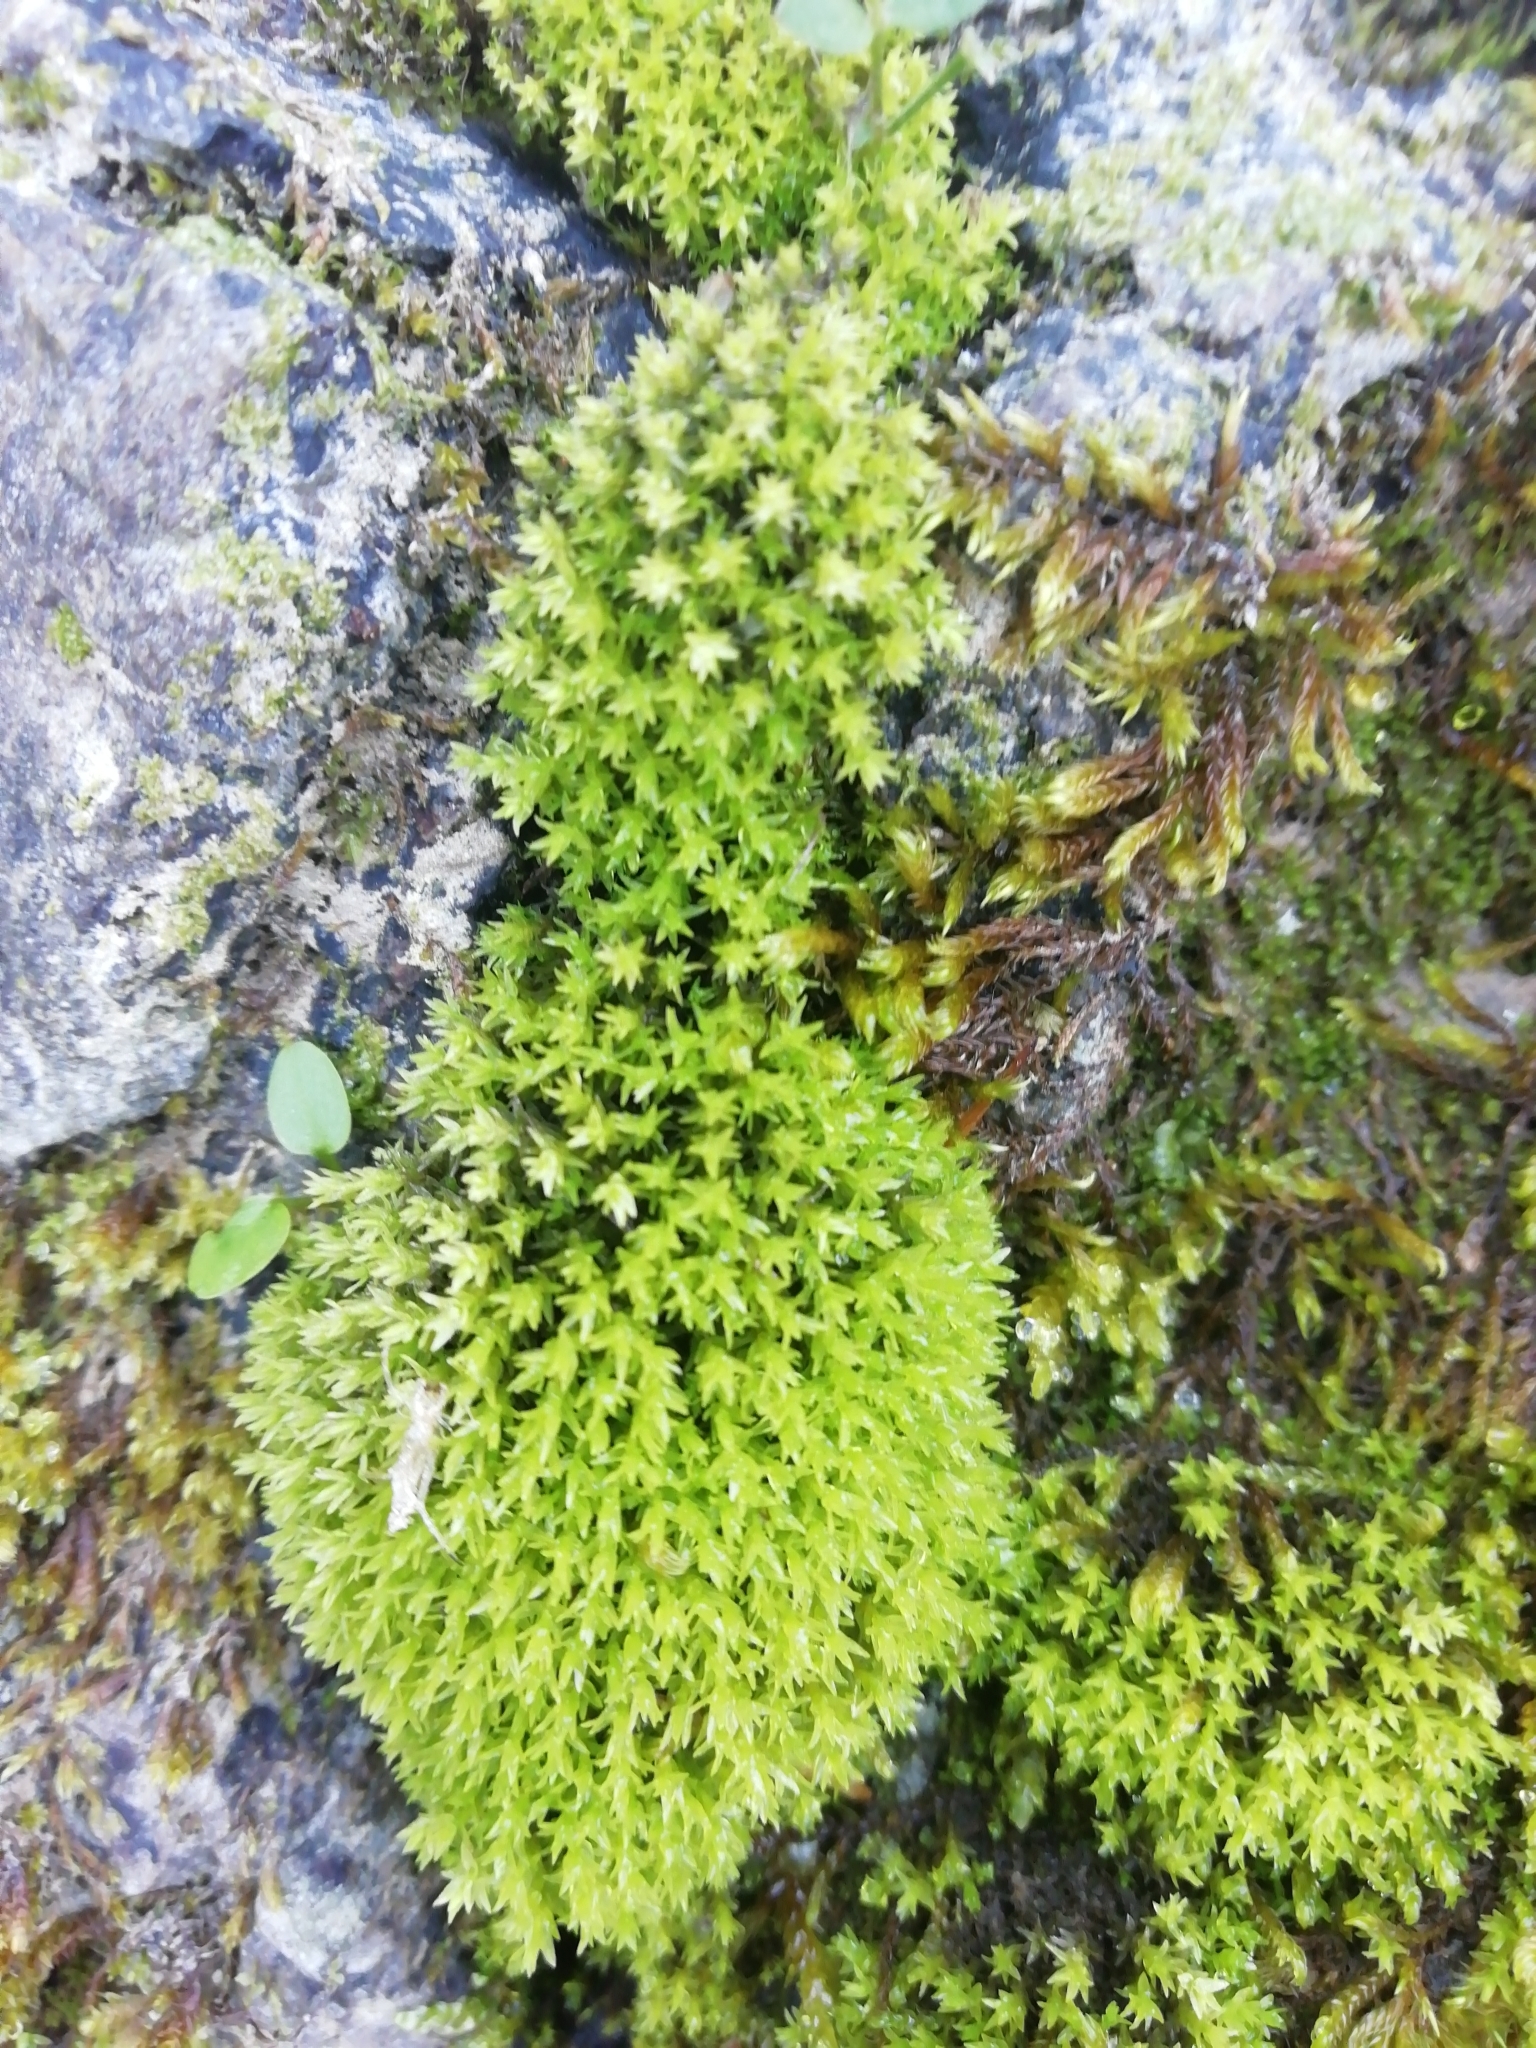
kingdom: Plantae
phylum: Bryophyta
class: Bryopsida
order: Dicranales
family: Aongstroemiaceae
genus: Dichodontium
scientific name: Dichodontium pellucidum
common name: Transparent fork moss
